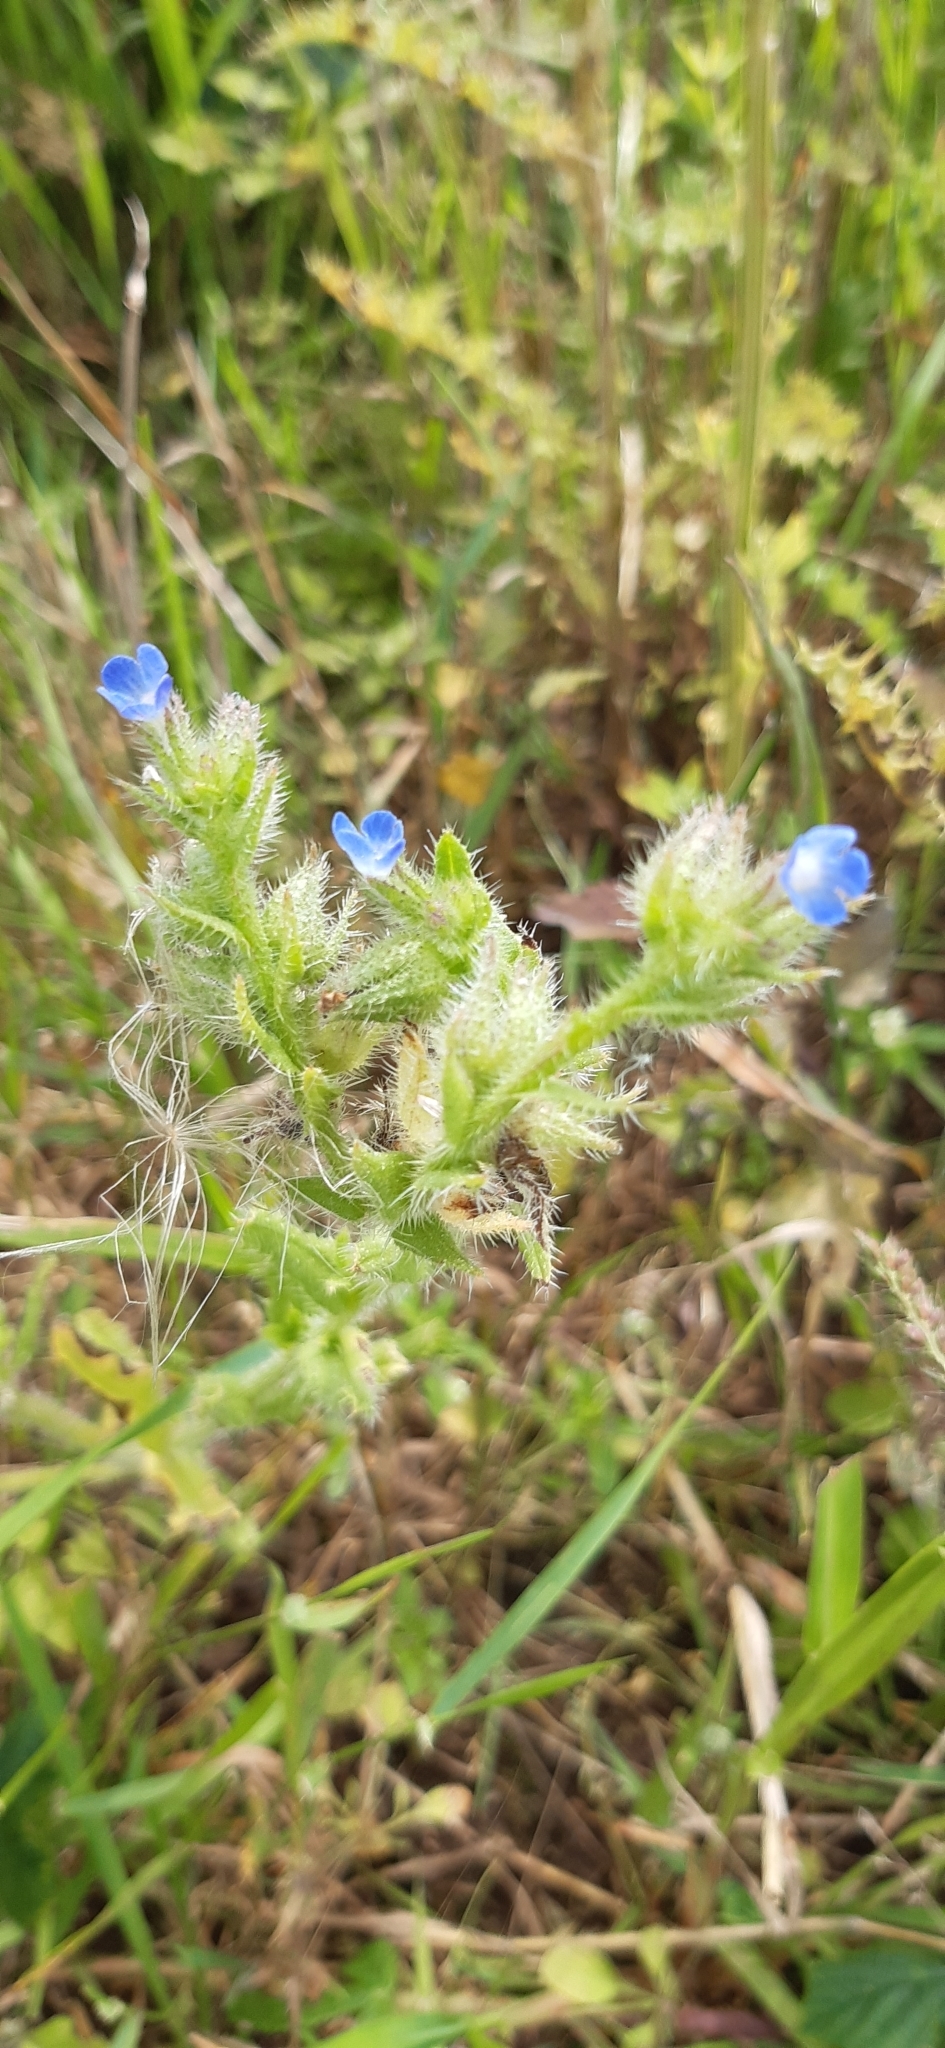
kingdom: Plantae
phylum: Tracheophyta
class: Magnoliopsida
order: Boraginales
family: Boraginaceae
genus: Lycopsis
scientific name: Lycopsis arvensis
